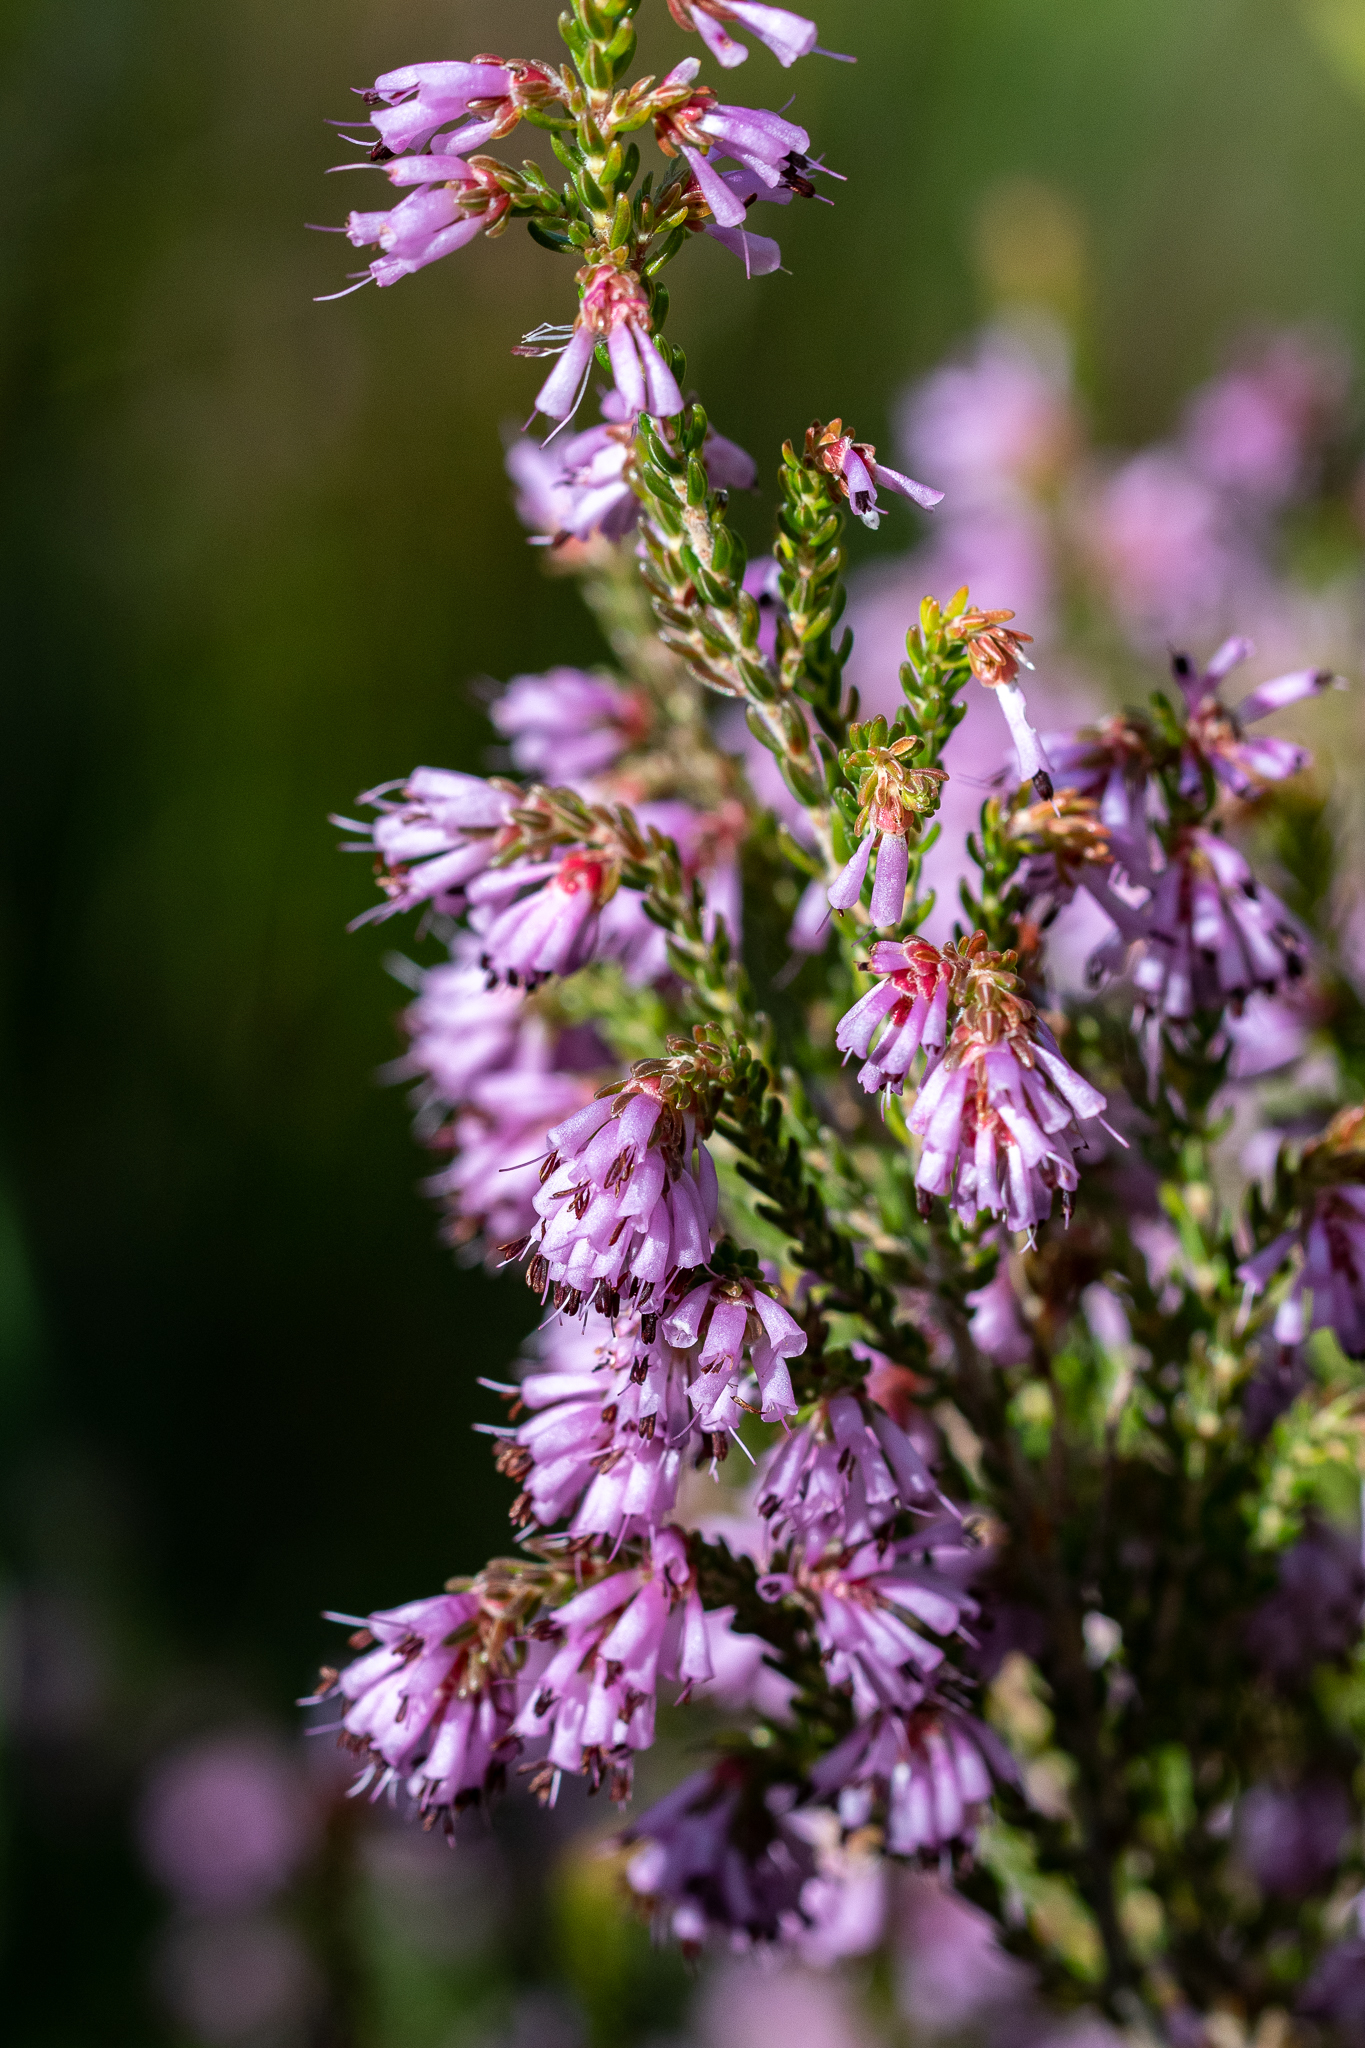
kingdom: Plantae
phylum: Tracheophyta
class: Magnoliopsida
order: Ericales
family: Ericaceae
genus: Erica
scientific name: Erica labialis
